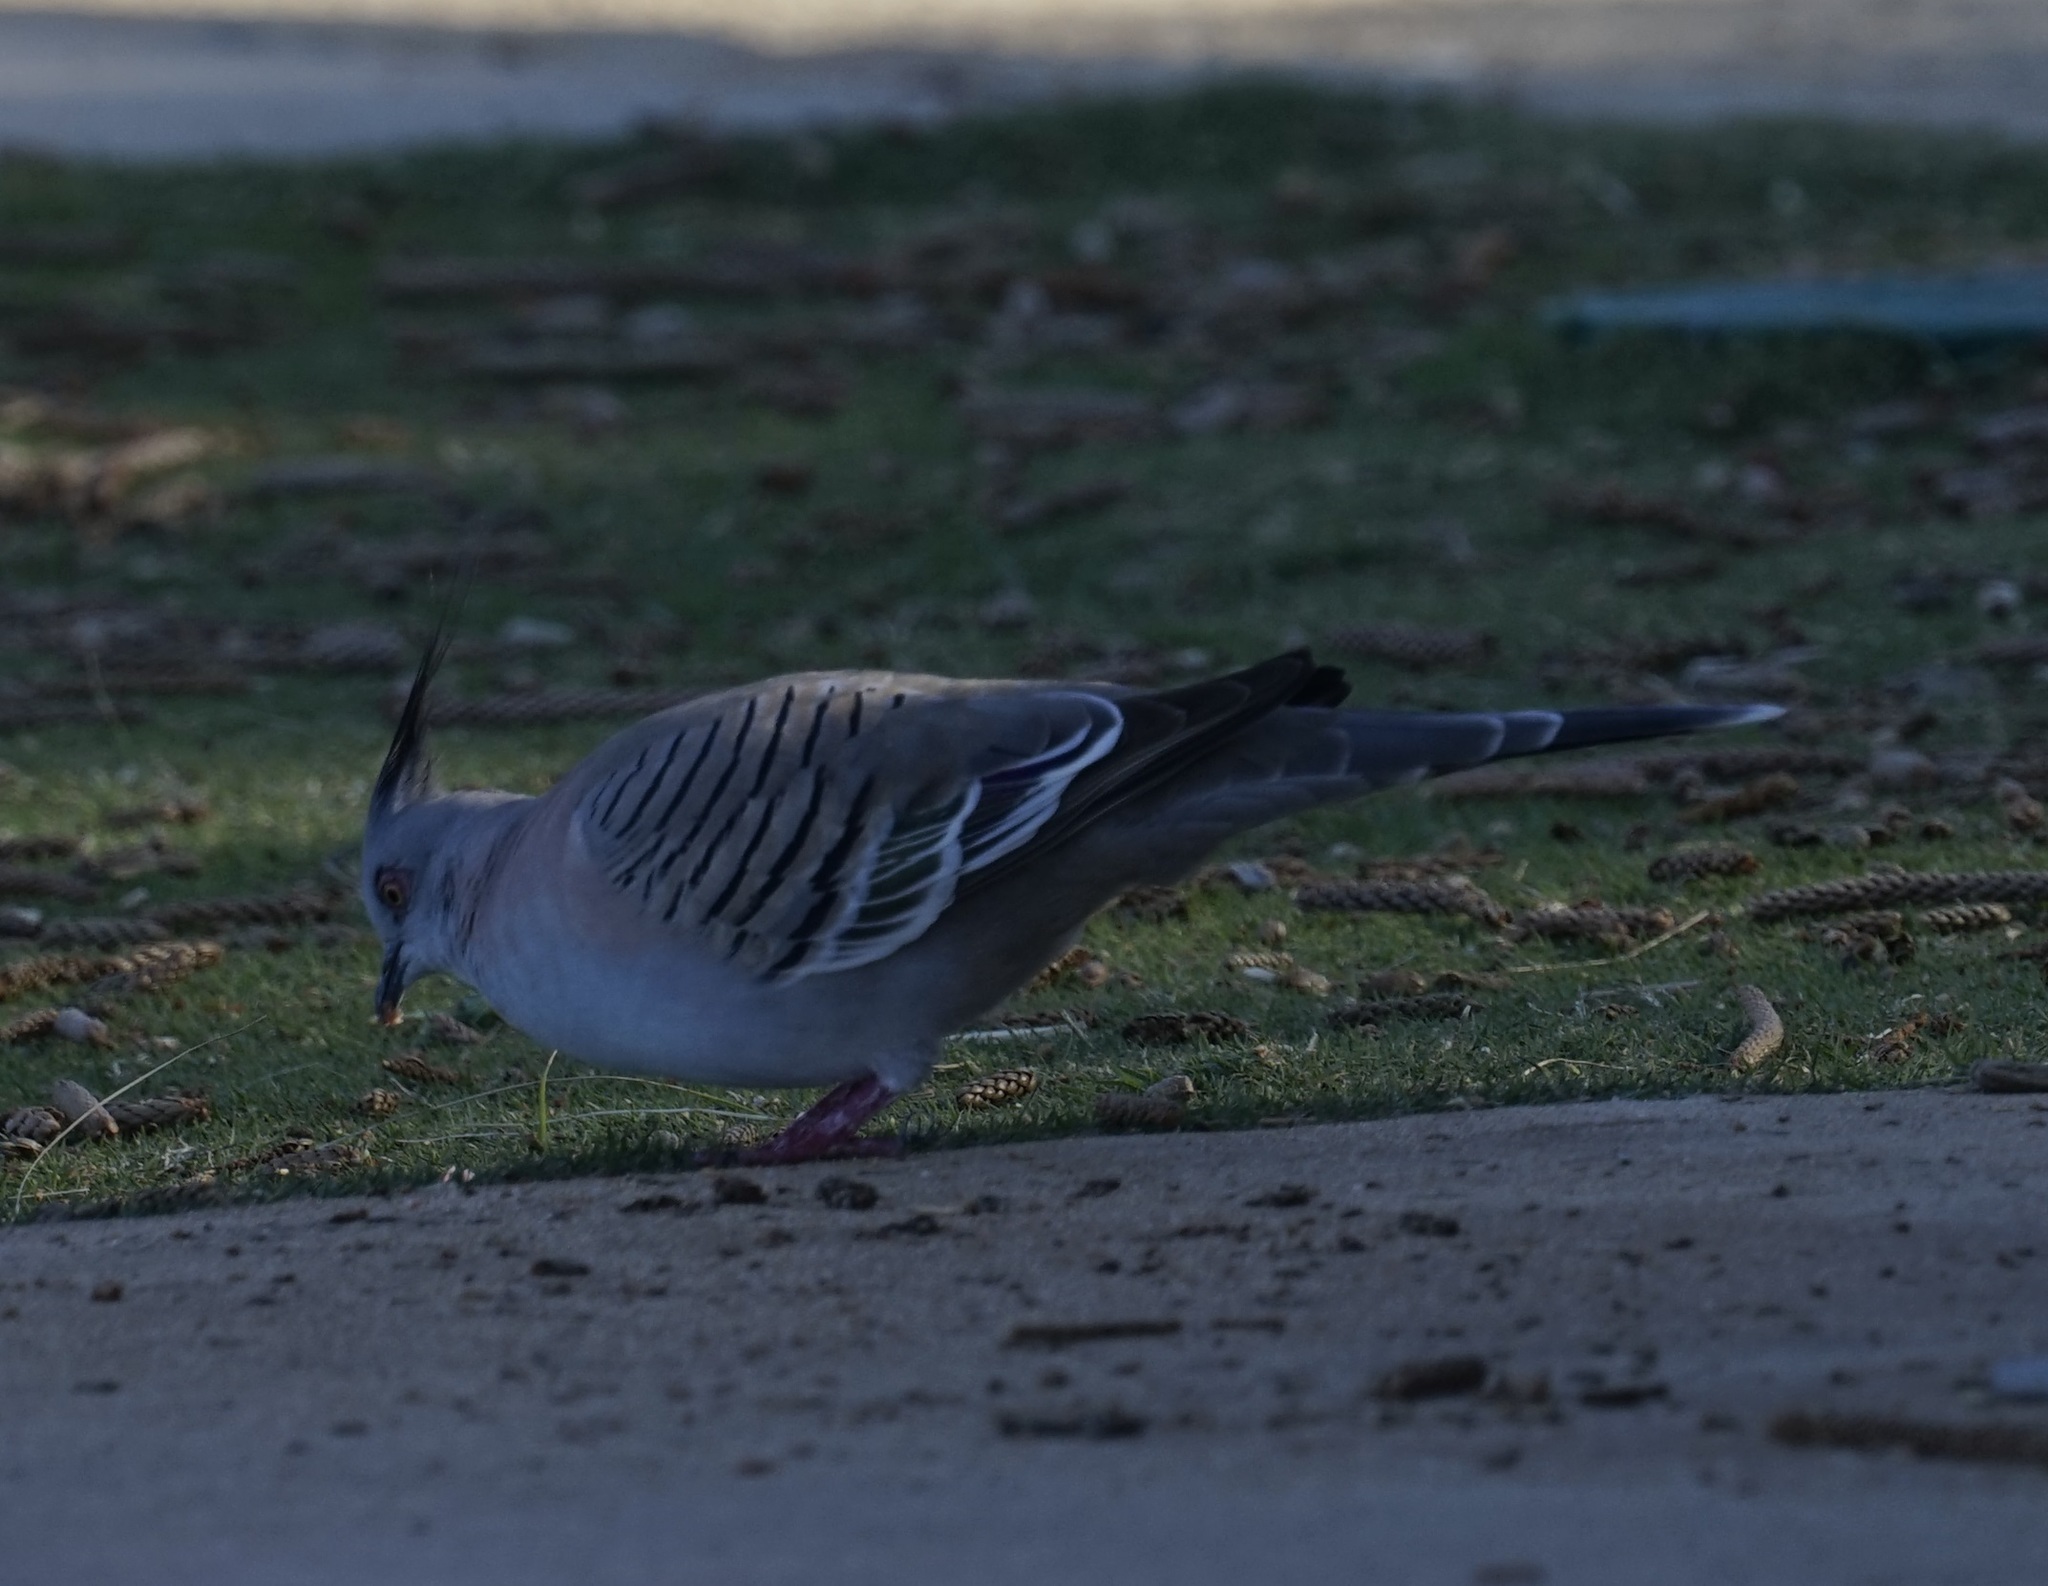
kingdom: Animalia
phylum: Chordata
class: Aves
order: Columbiformes
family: Columbidae
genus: Ocyphaps
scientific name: Ocyphaps lophotes
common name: Crested pigeon
